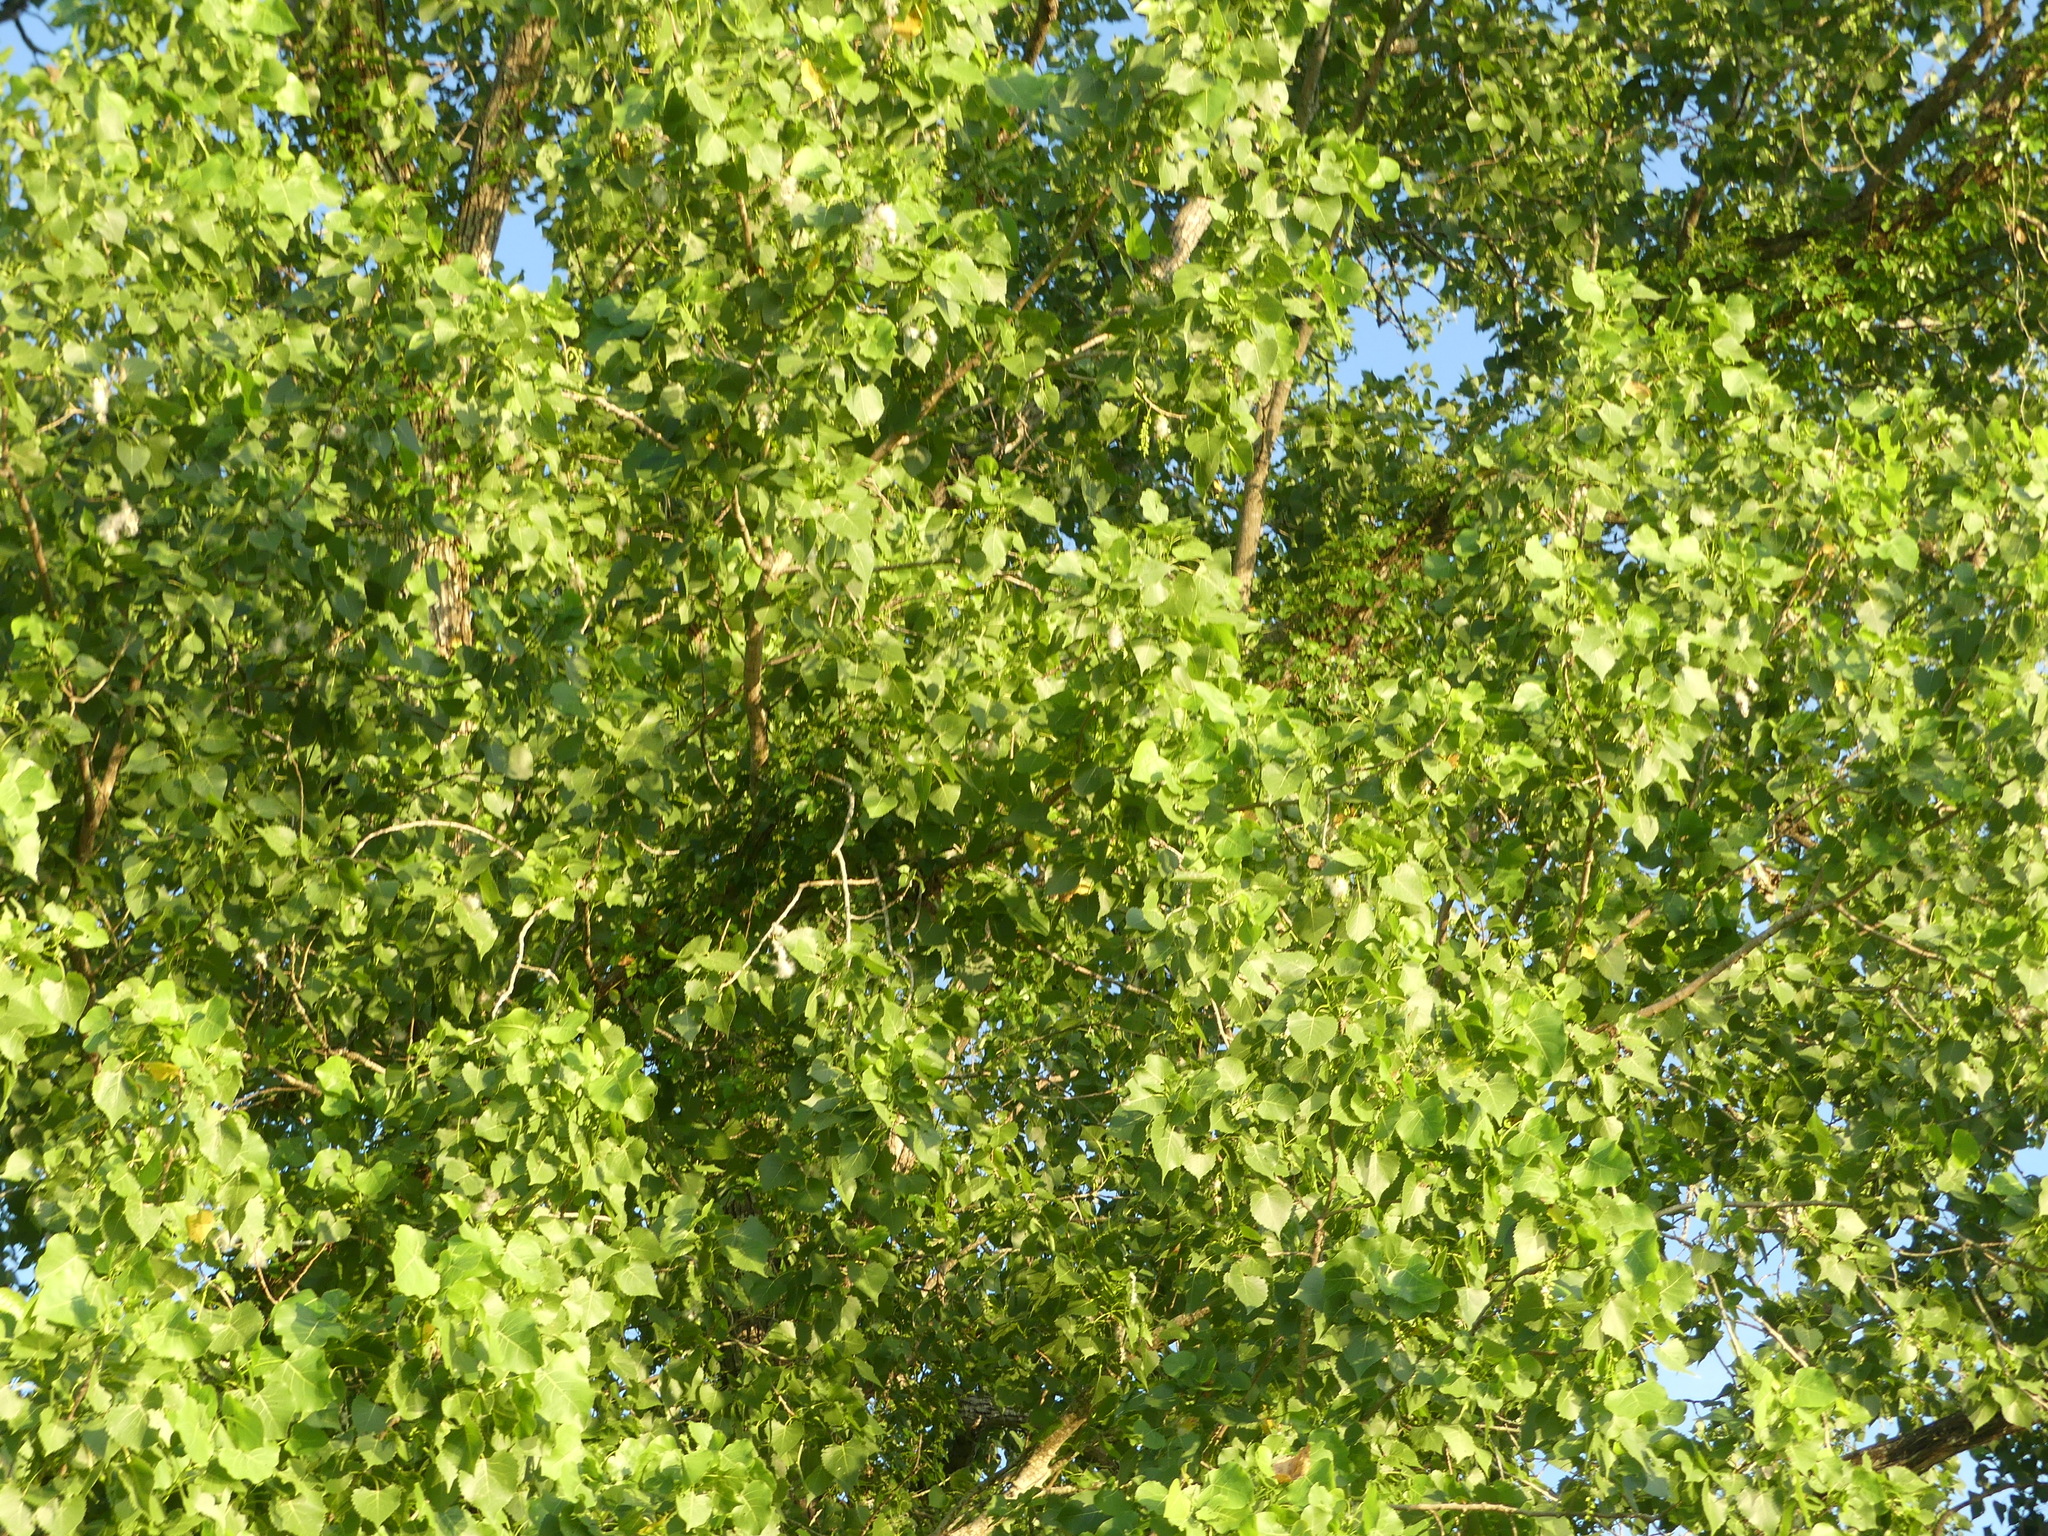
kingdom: Plantae
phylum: Tracheophyta
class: Magnoliopsida
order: Malpighiales
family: Salicaceae
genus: Populus
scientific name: Populus deltoides
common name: Eastern cottonwood
